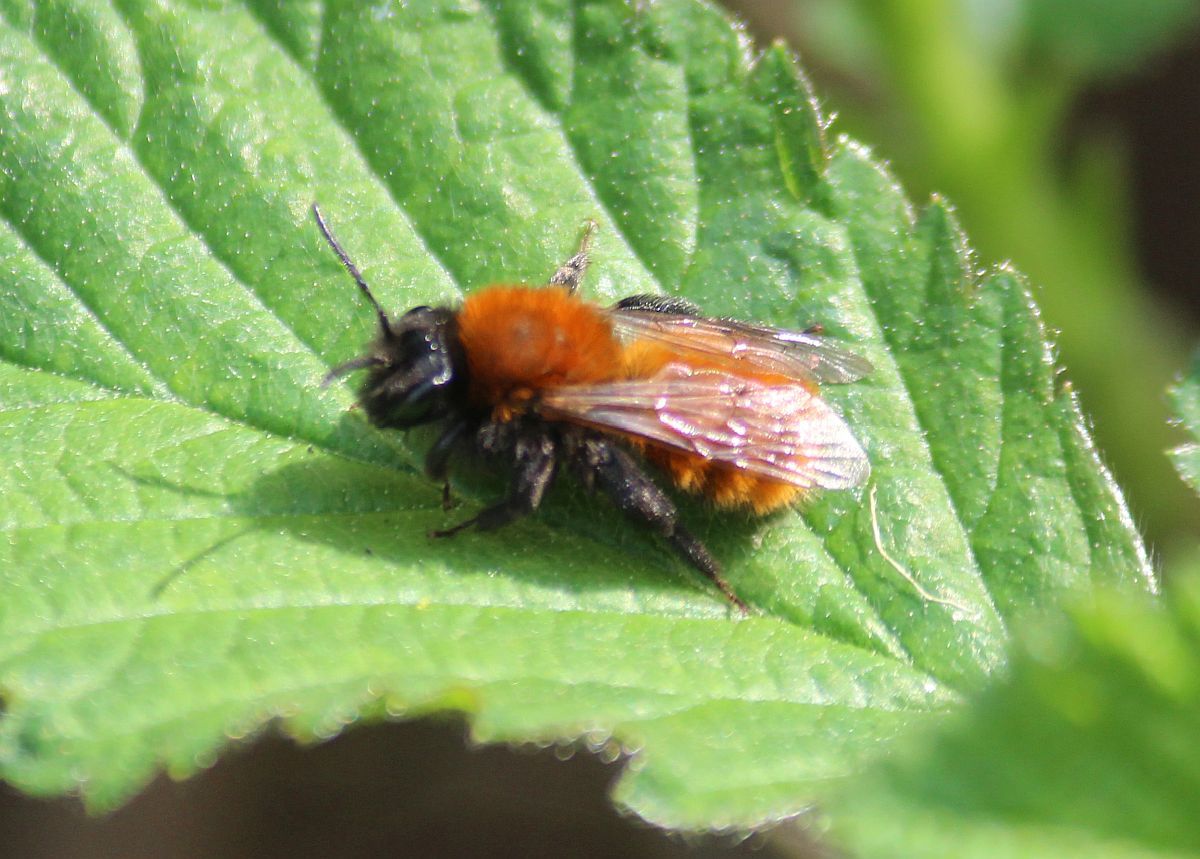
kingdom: Animalia
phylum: Arthropoda
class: Insecta
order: Hymenoptera
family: Andrenidae
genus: Andrena
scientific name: Andrena fulva
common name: Tawny mining bee
